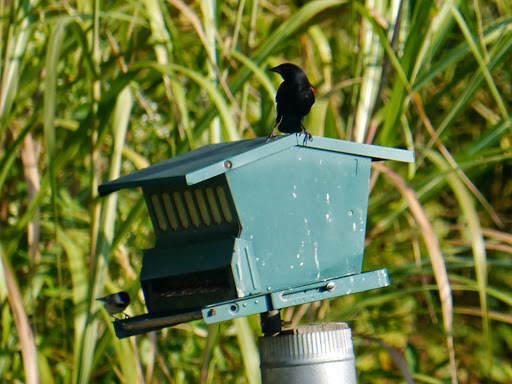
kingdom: Animalia
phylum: Chordata
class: Aves
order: Passeriformes
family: Paridae
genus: Poecile
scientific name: Poecile carolinensis
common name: Carolina chickadee
